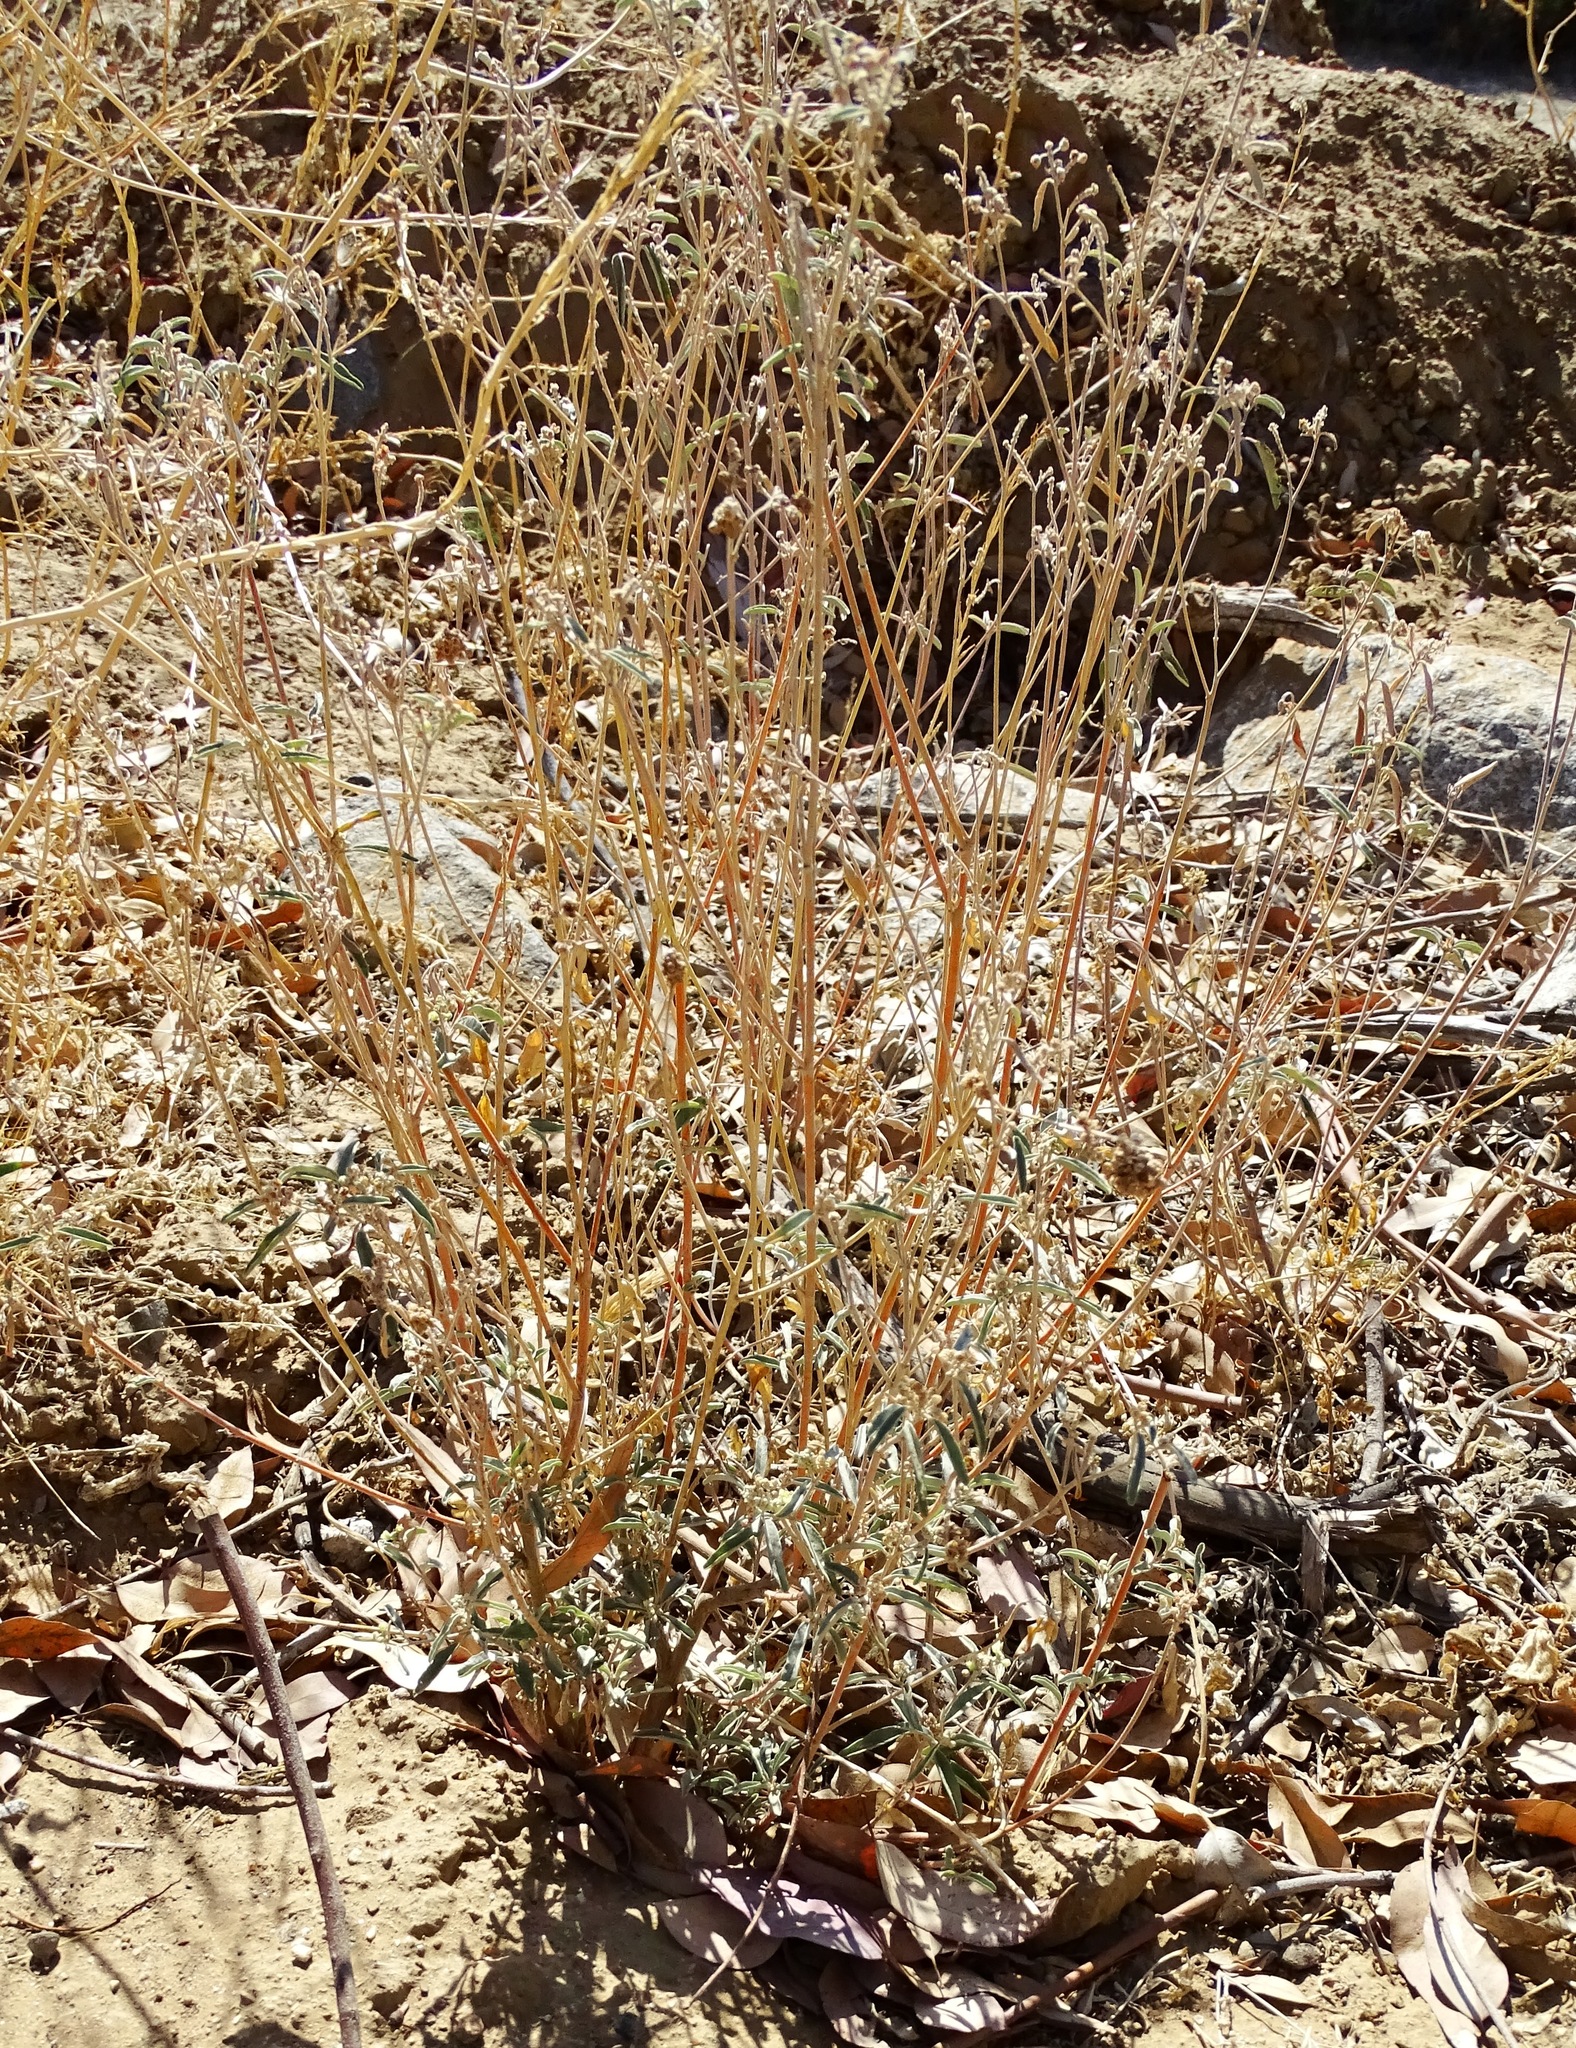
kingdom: Plantae
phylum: Tracheophyta
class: Magnoliopsida
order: Malpighiales
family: Euphorbiaceae
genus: Croton
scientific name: Croton californicus
